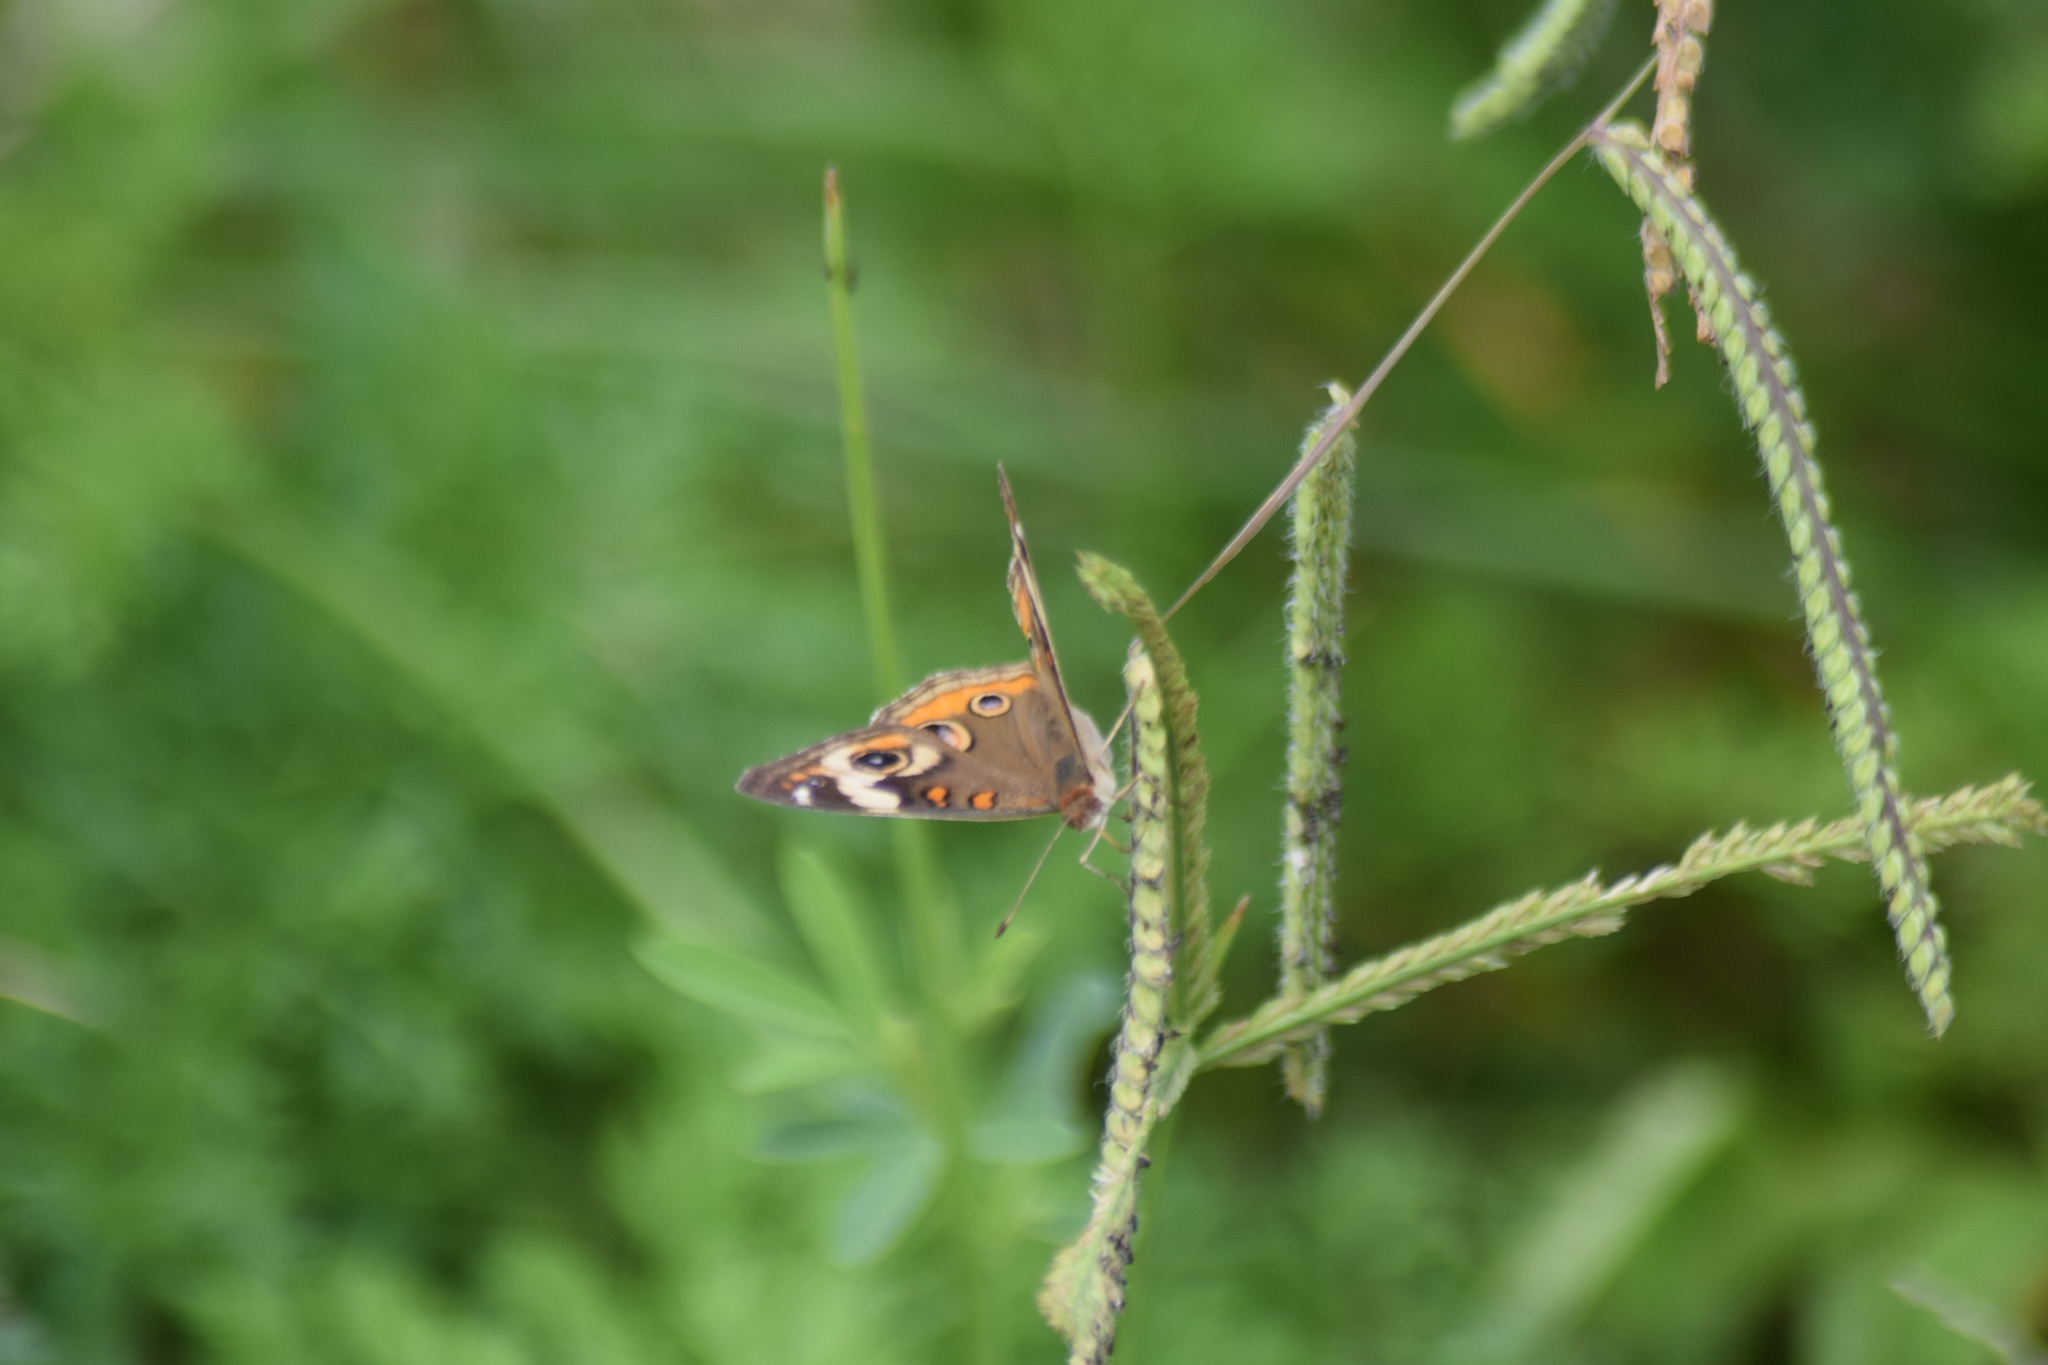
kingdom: Animalia
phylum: Arthropoda
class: Insecta
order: Lepidoptera
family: Nymphalidae
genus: Junonia
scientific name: Junonia coenia
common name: Common buckeye
